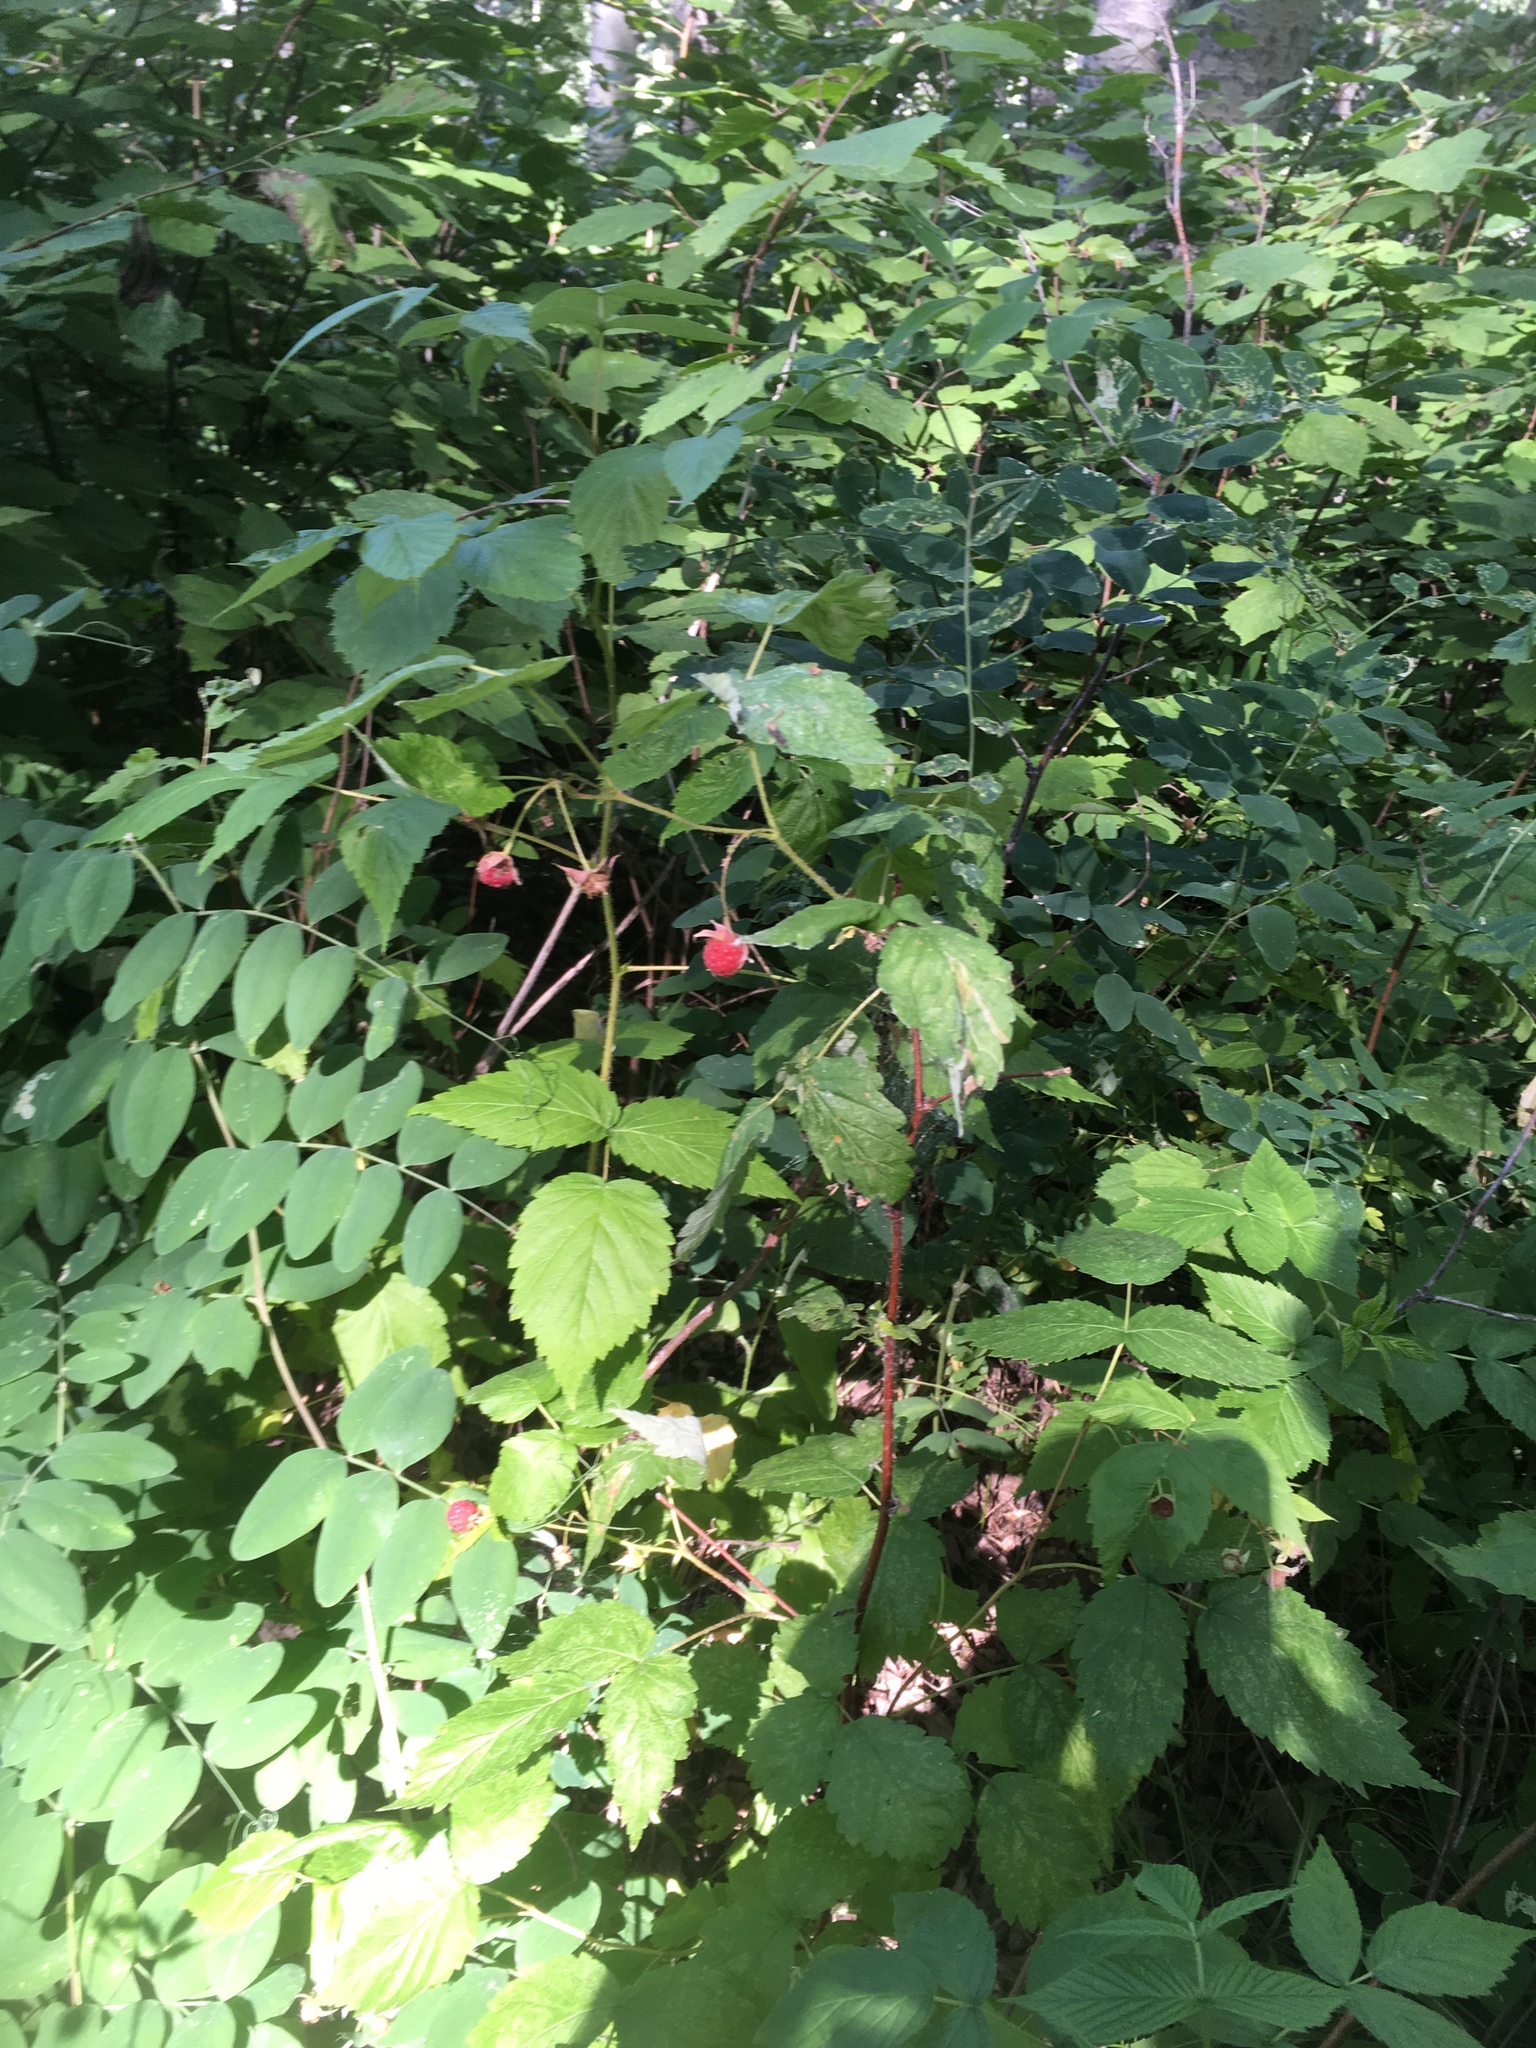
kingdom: Plantae
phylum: Tracheophyta
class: Magnoliopsida
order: Rosales
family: Rosaceae
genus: Rubus
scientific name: Rubus idaeus
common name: Raspberry
